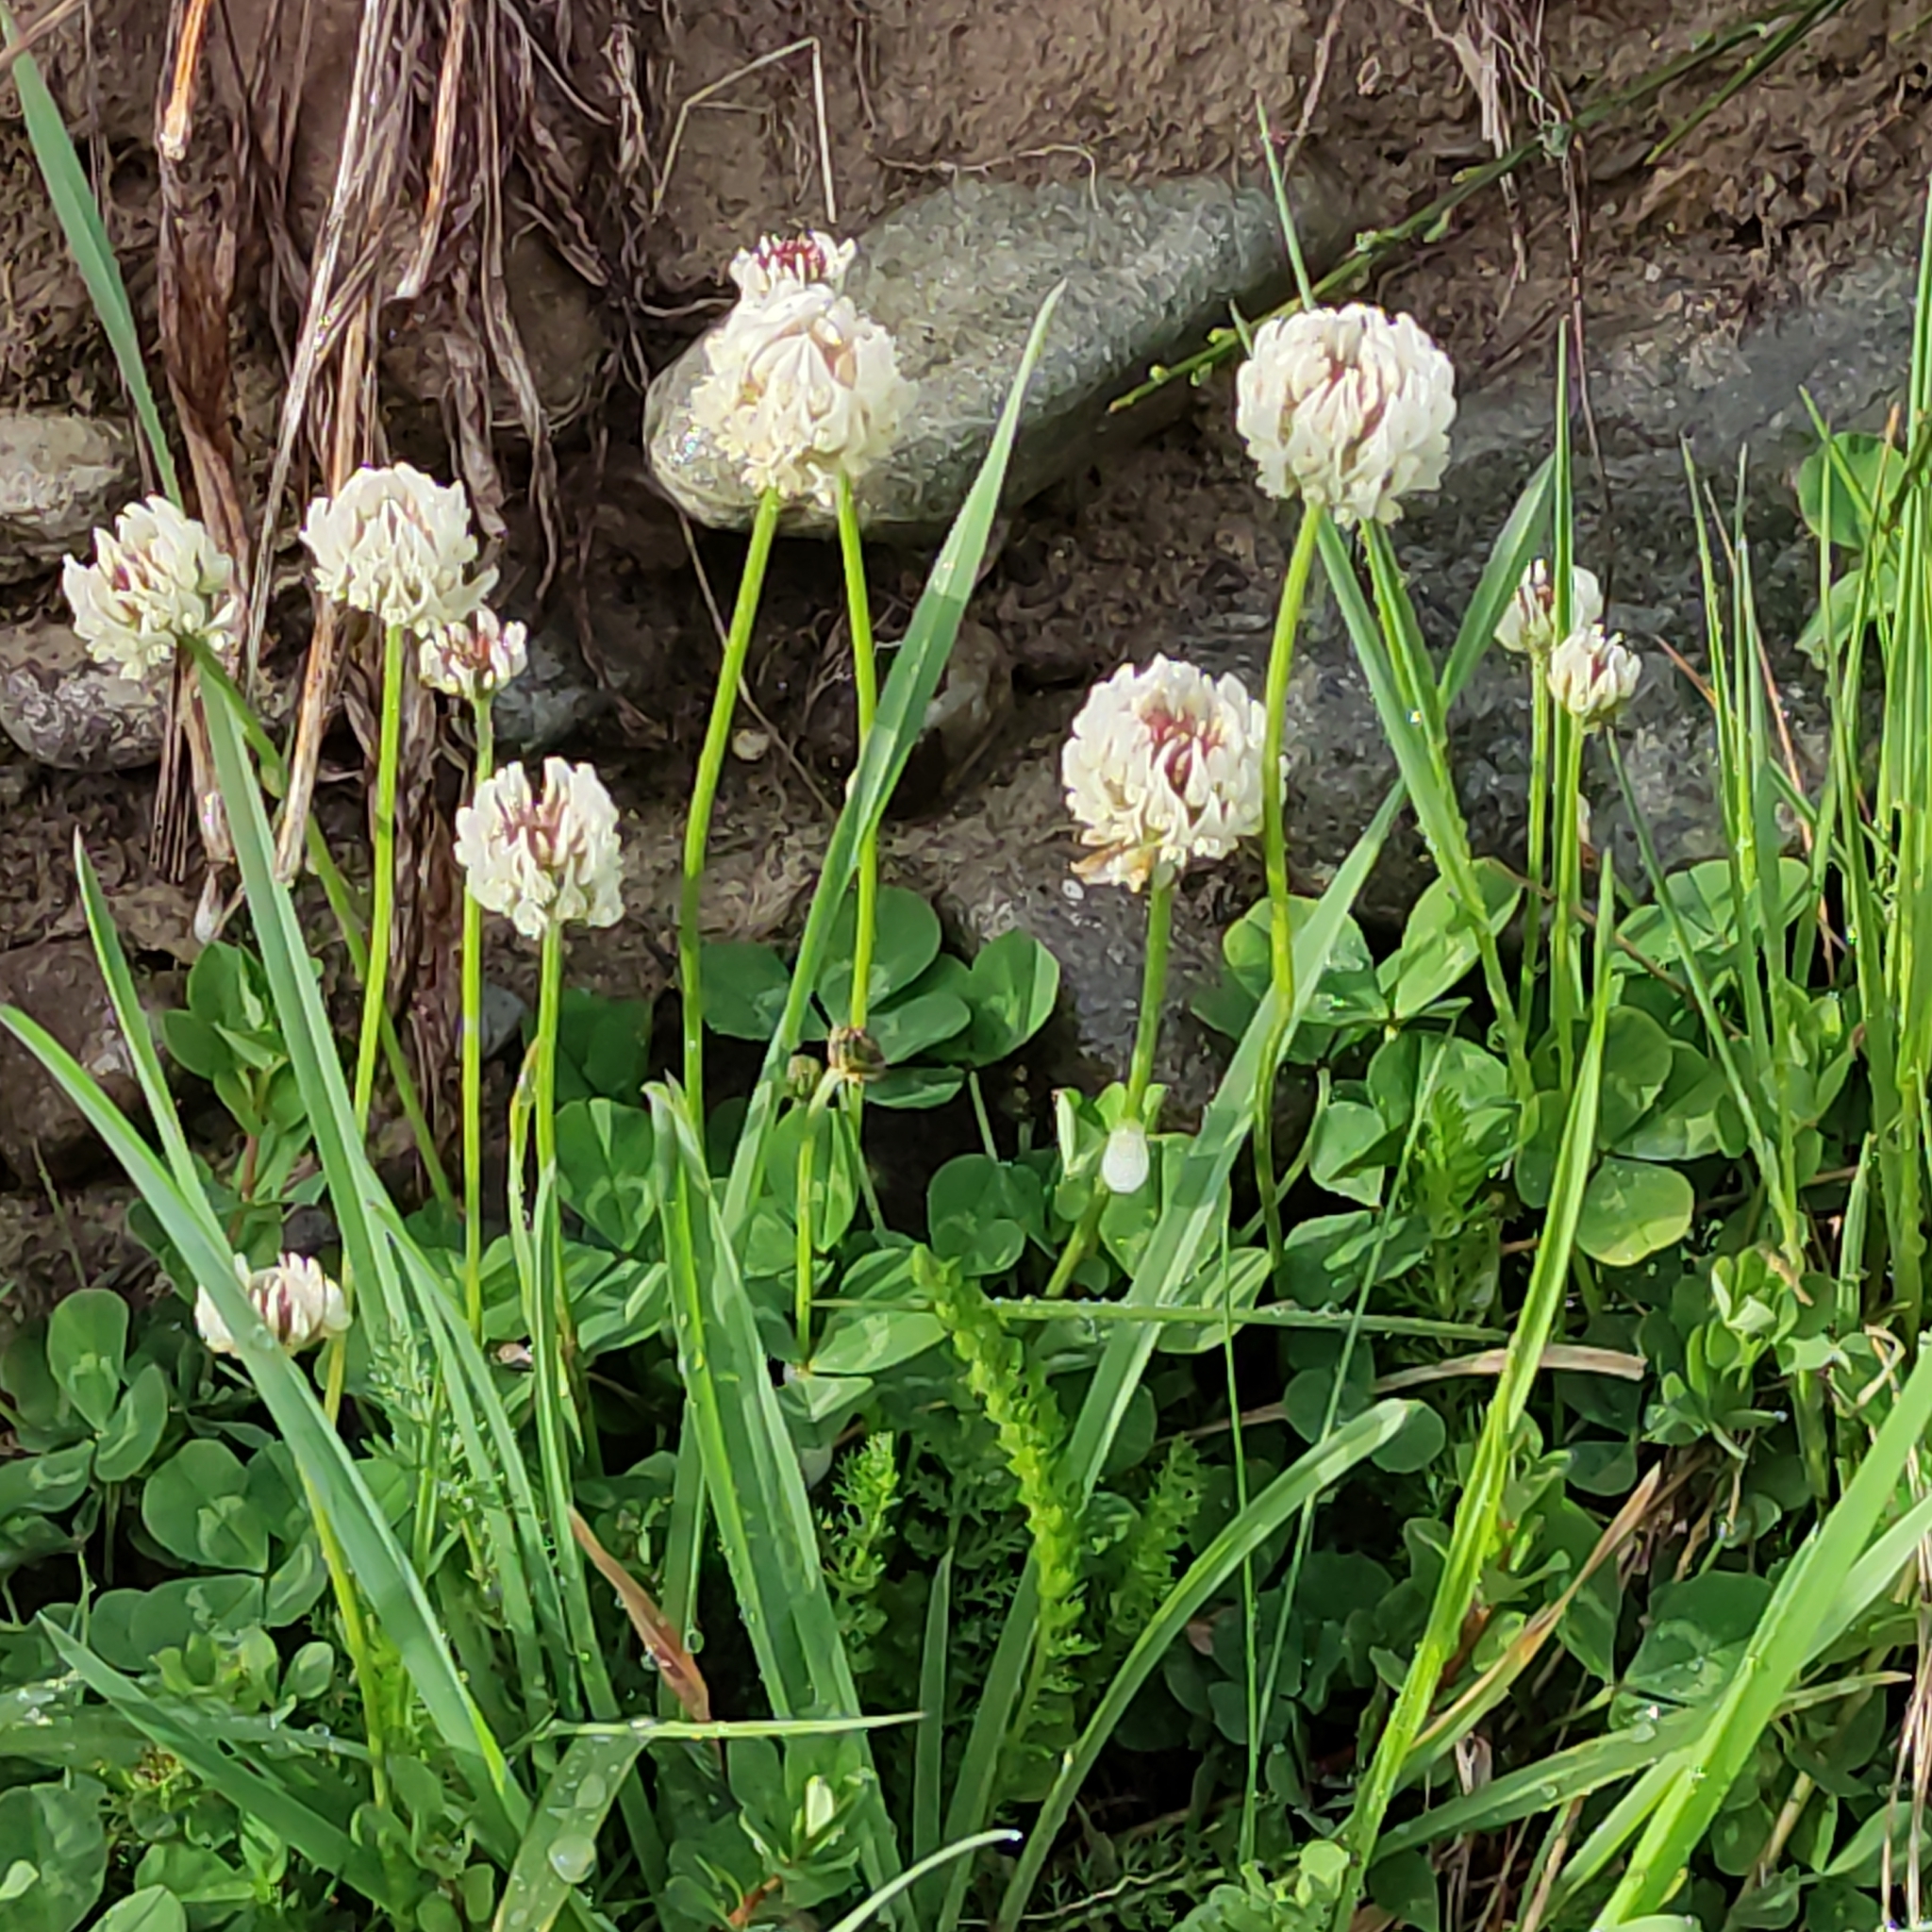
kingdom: Plantae
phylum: Tracheophyta
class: Magnoliopsida
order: Fabales
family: Fabaceae
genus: Trifolium
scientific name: Trifolium repens
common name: White clover
